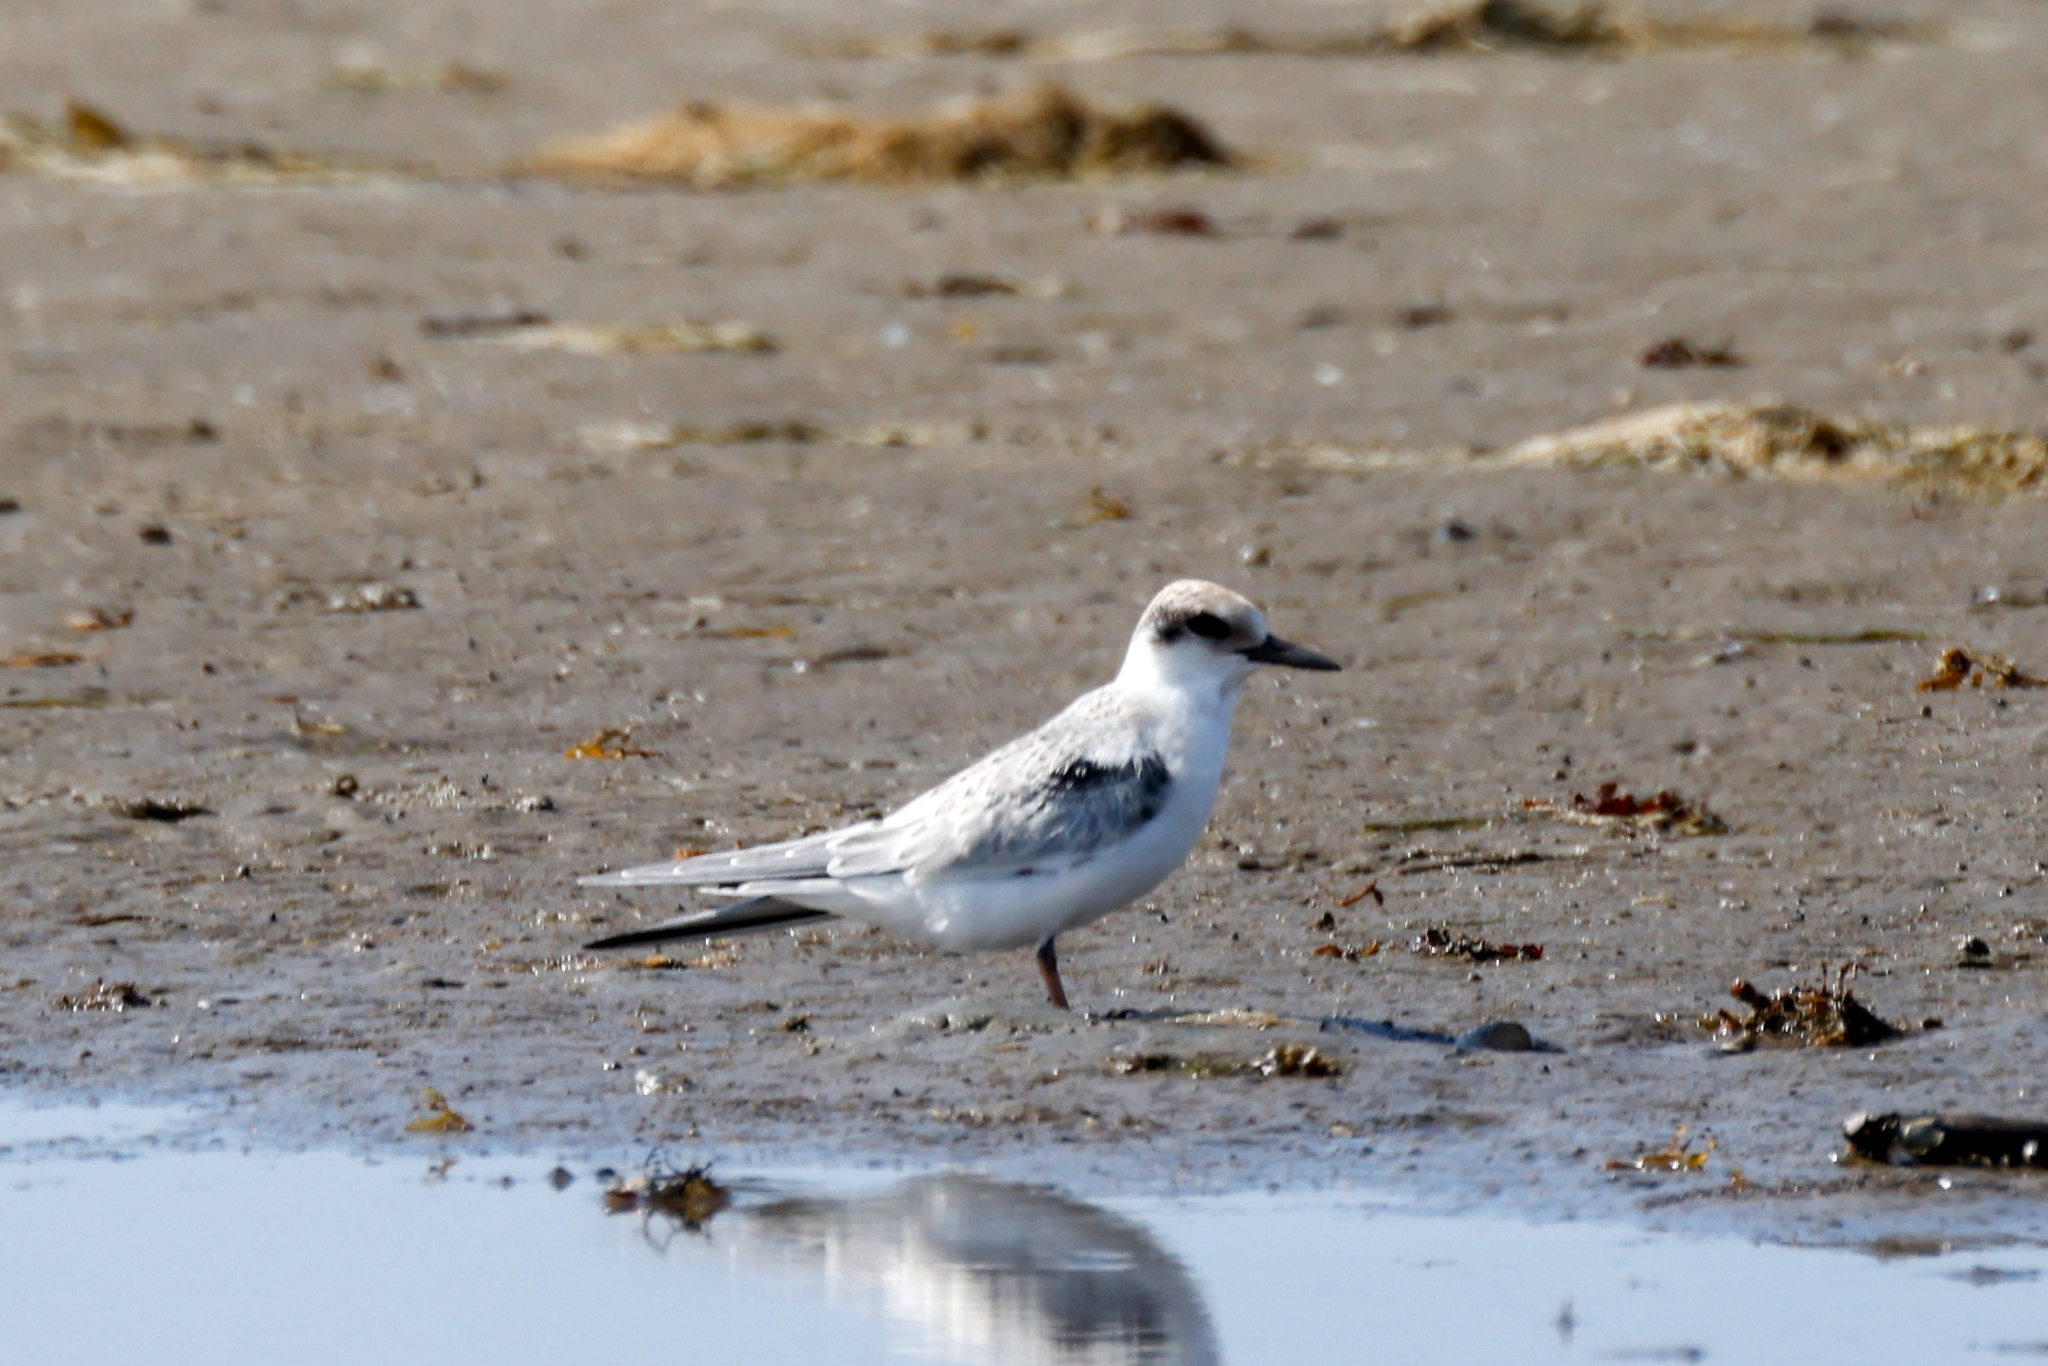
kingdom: Animalia
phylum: Chordata
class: Aves
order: Charadriiformes
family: Laridae
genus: Sternula
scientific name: Sternula antillarum
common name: Least tern
